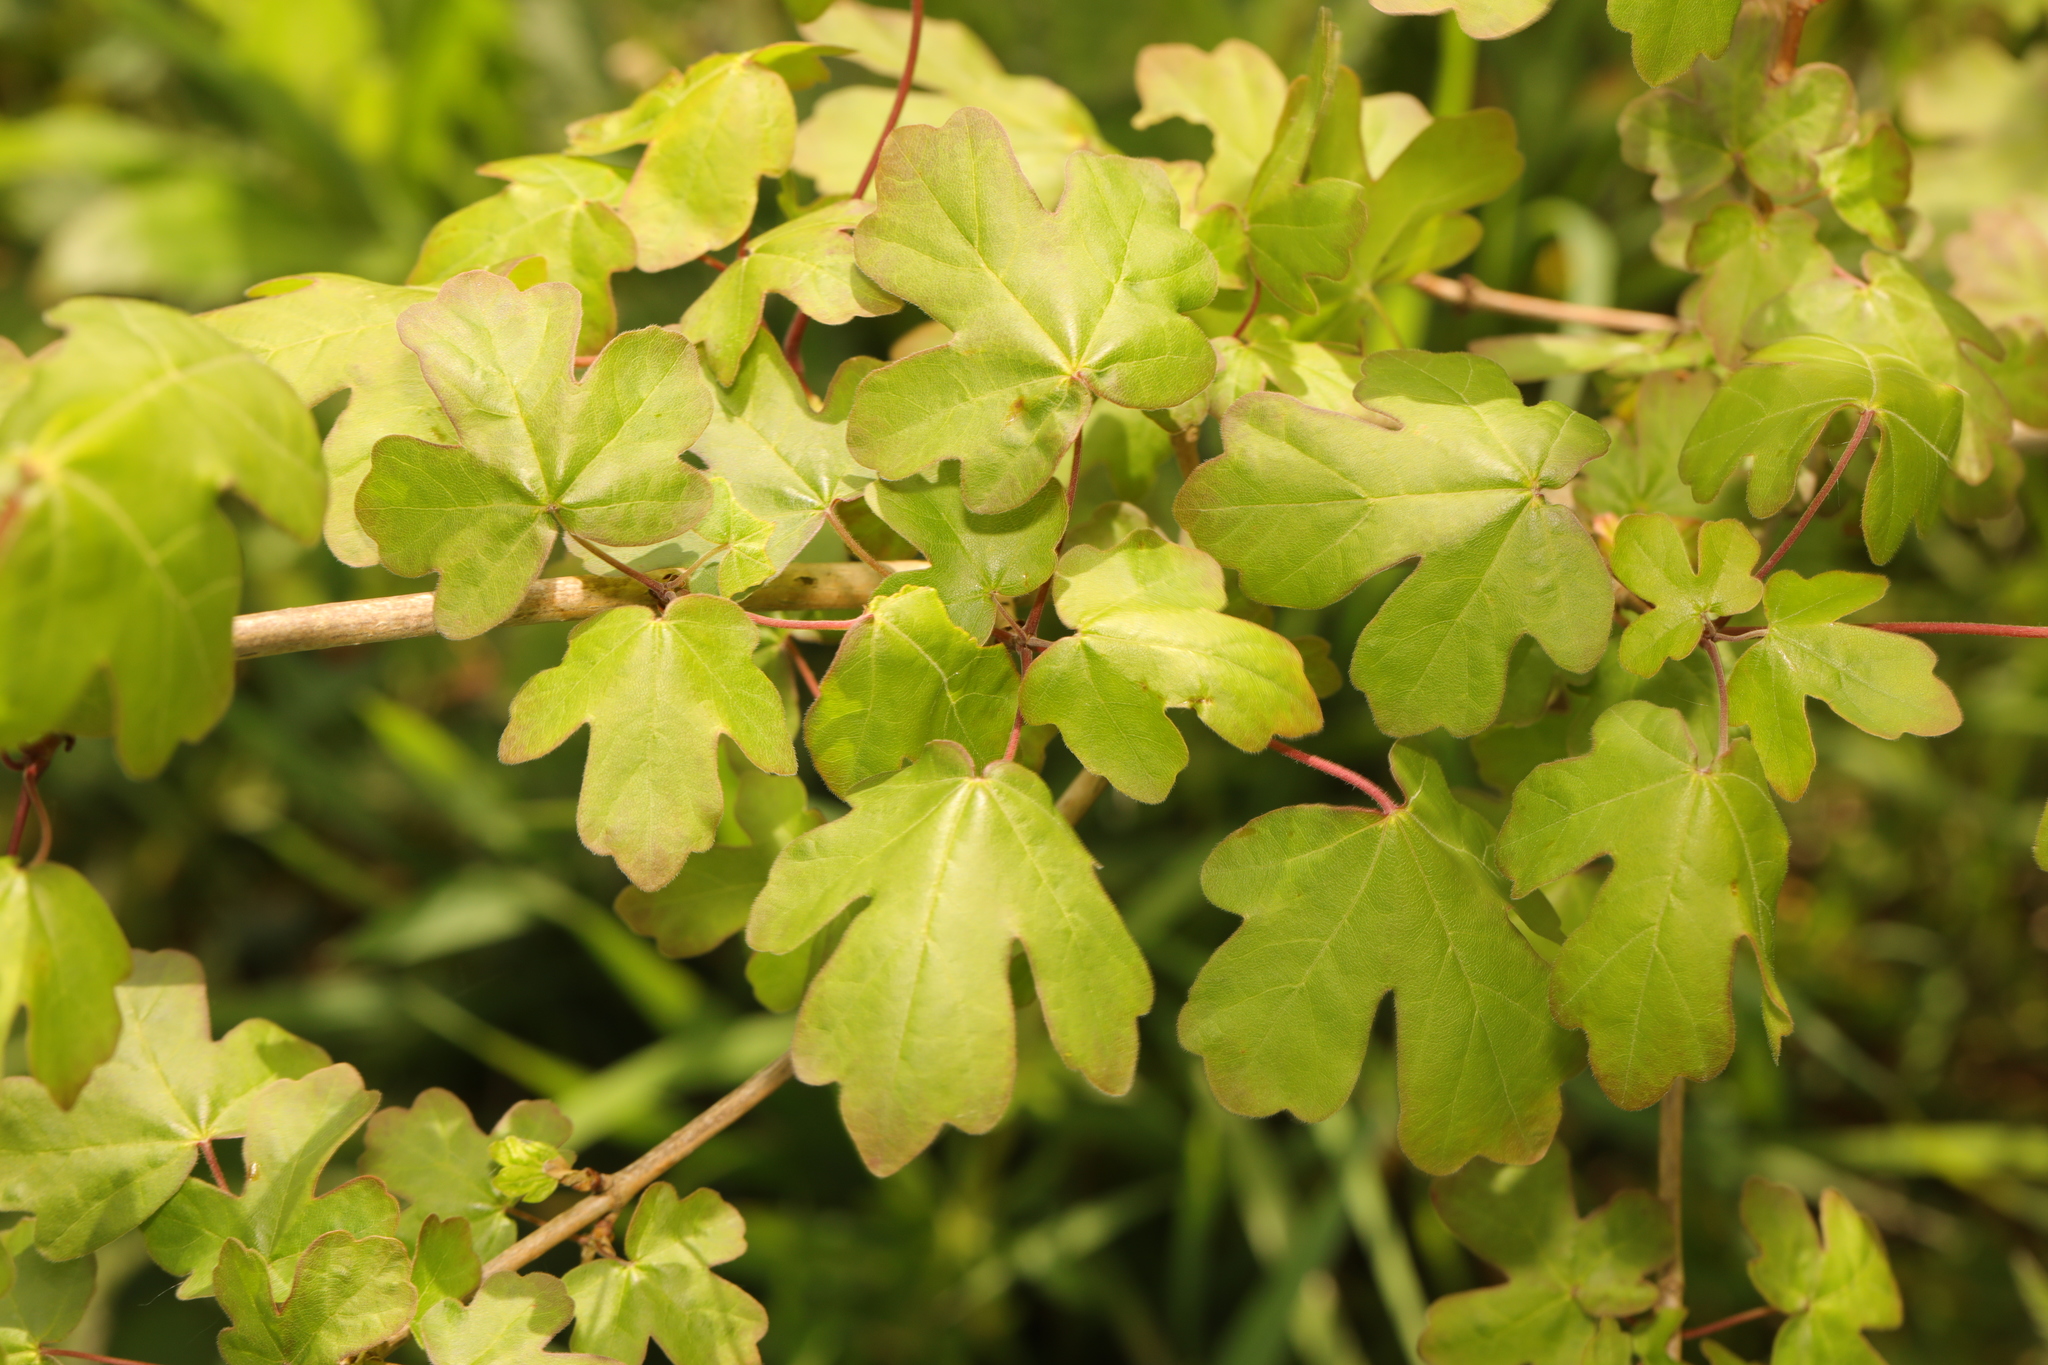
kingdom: Plantae
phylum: Tracheophyta
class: Magnoliopsida
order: Sapindales
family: Sapindaceae
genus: Acer
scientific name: Acer campestre
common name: Field maple
